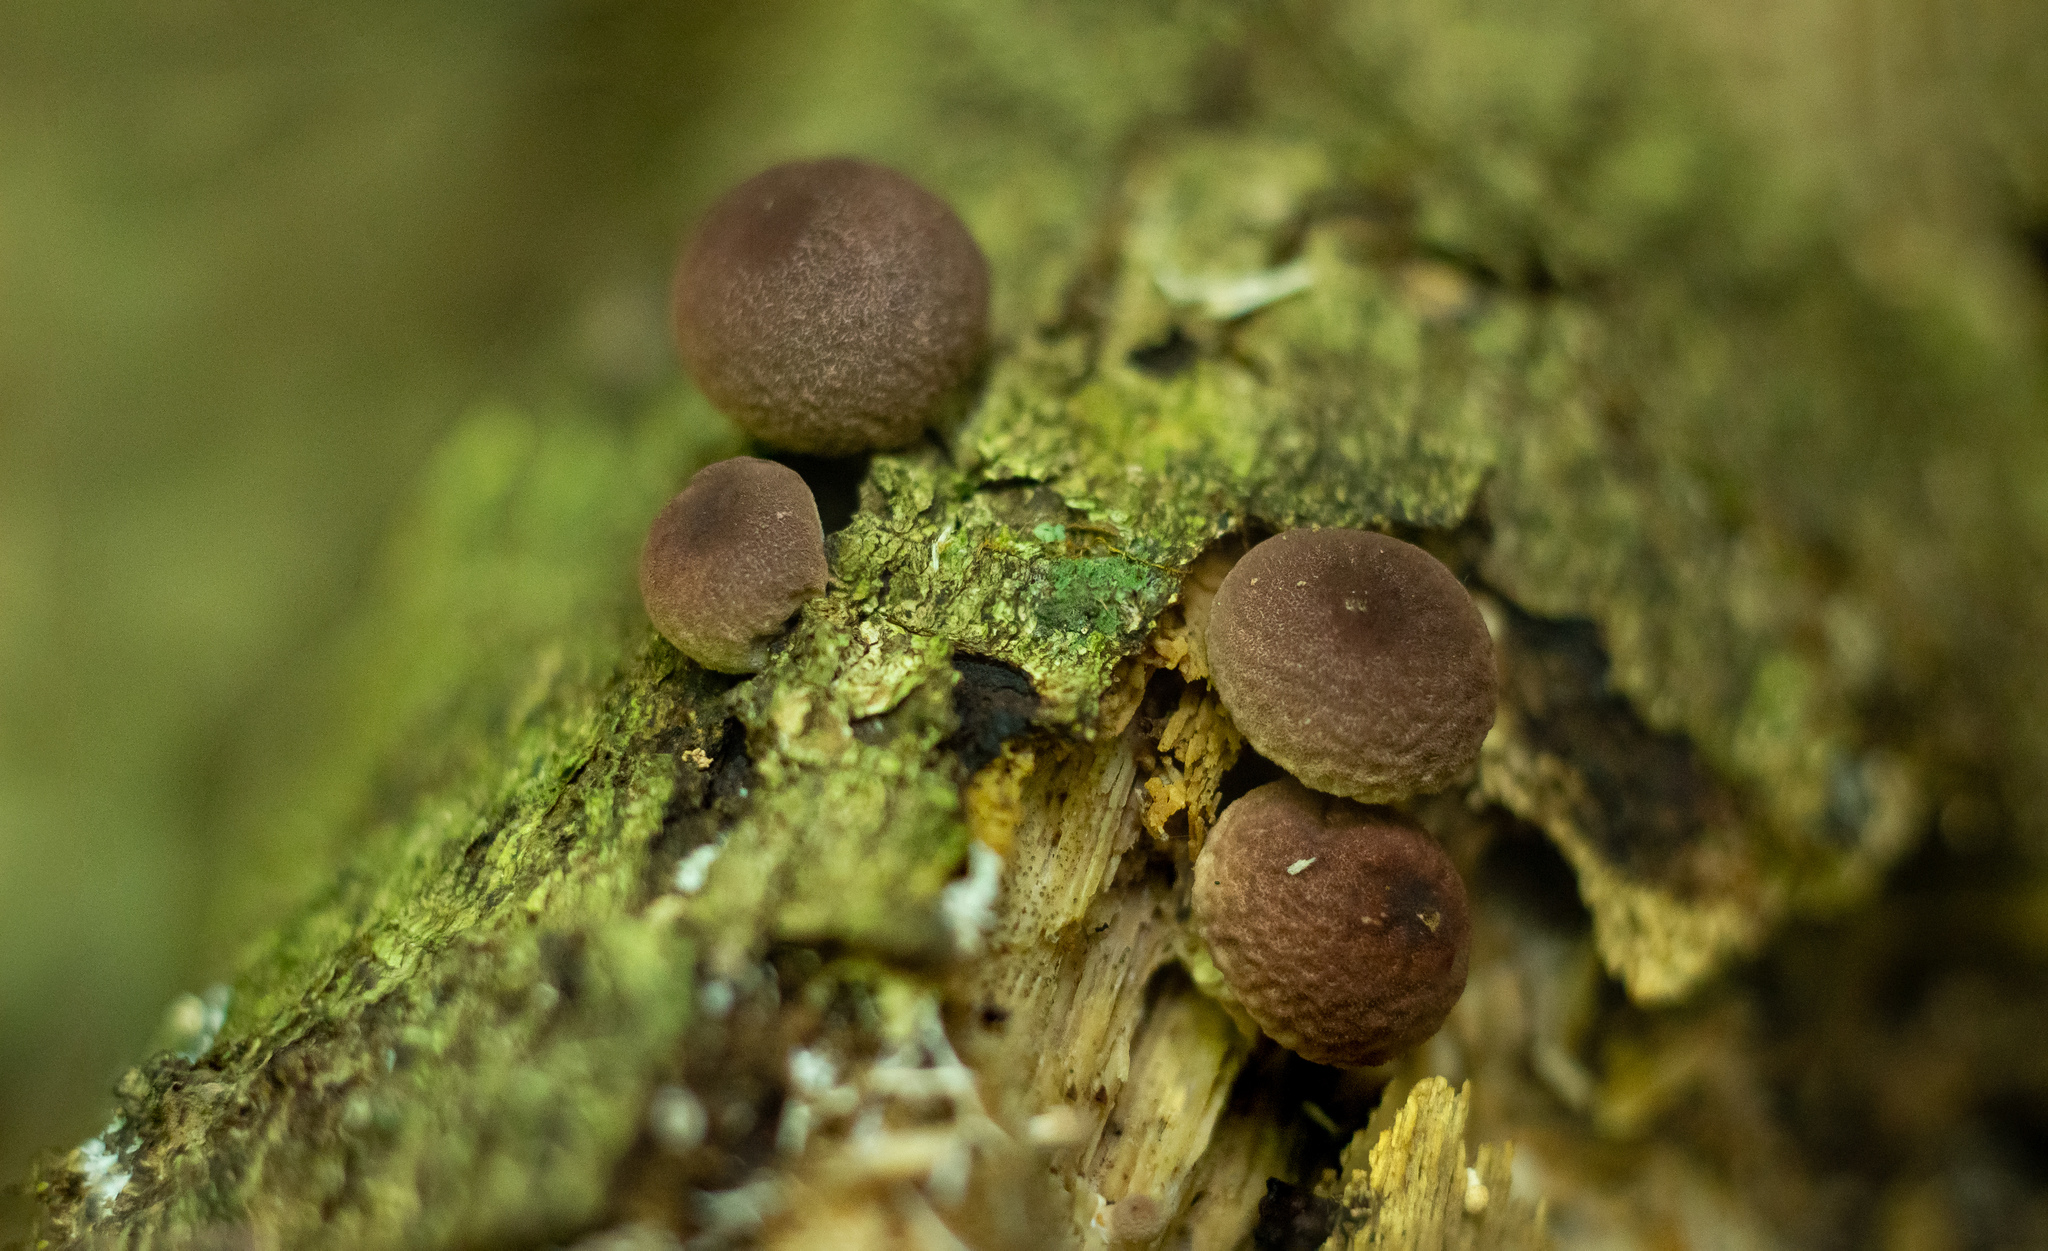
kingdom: Fungi
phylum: Basidiomycota
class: Agaricomycetes
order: Agaricales
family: Lycoperdaceae
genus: Lycoperdon
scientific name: Lycoperdon fuligineum
